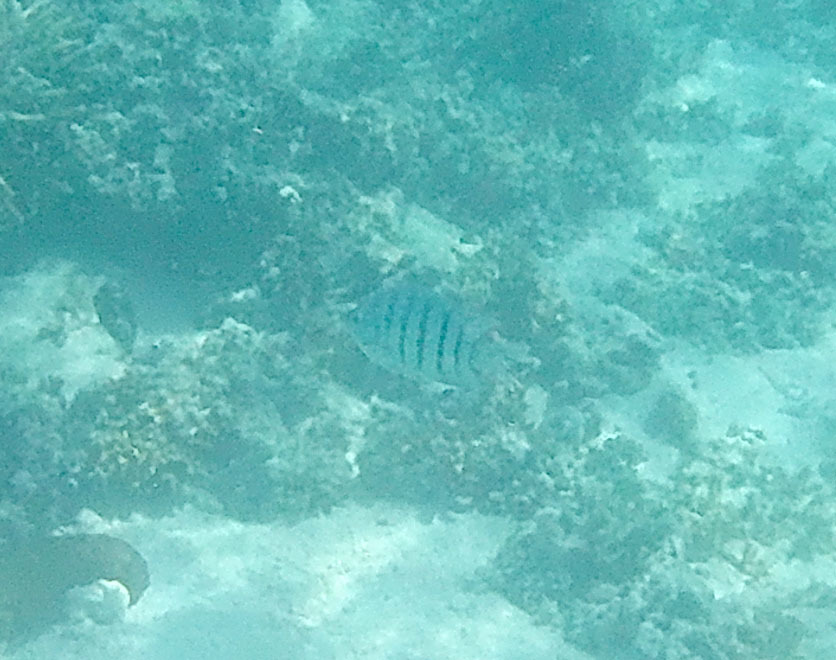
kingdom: Animalia
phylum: Chordata
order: Perciformes
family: Pomacentridae
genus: Abudefduf
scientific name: Abudefduf bengalensis
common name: Bengal sergeant
